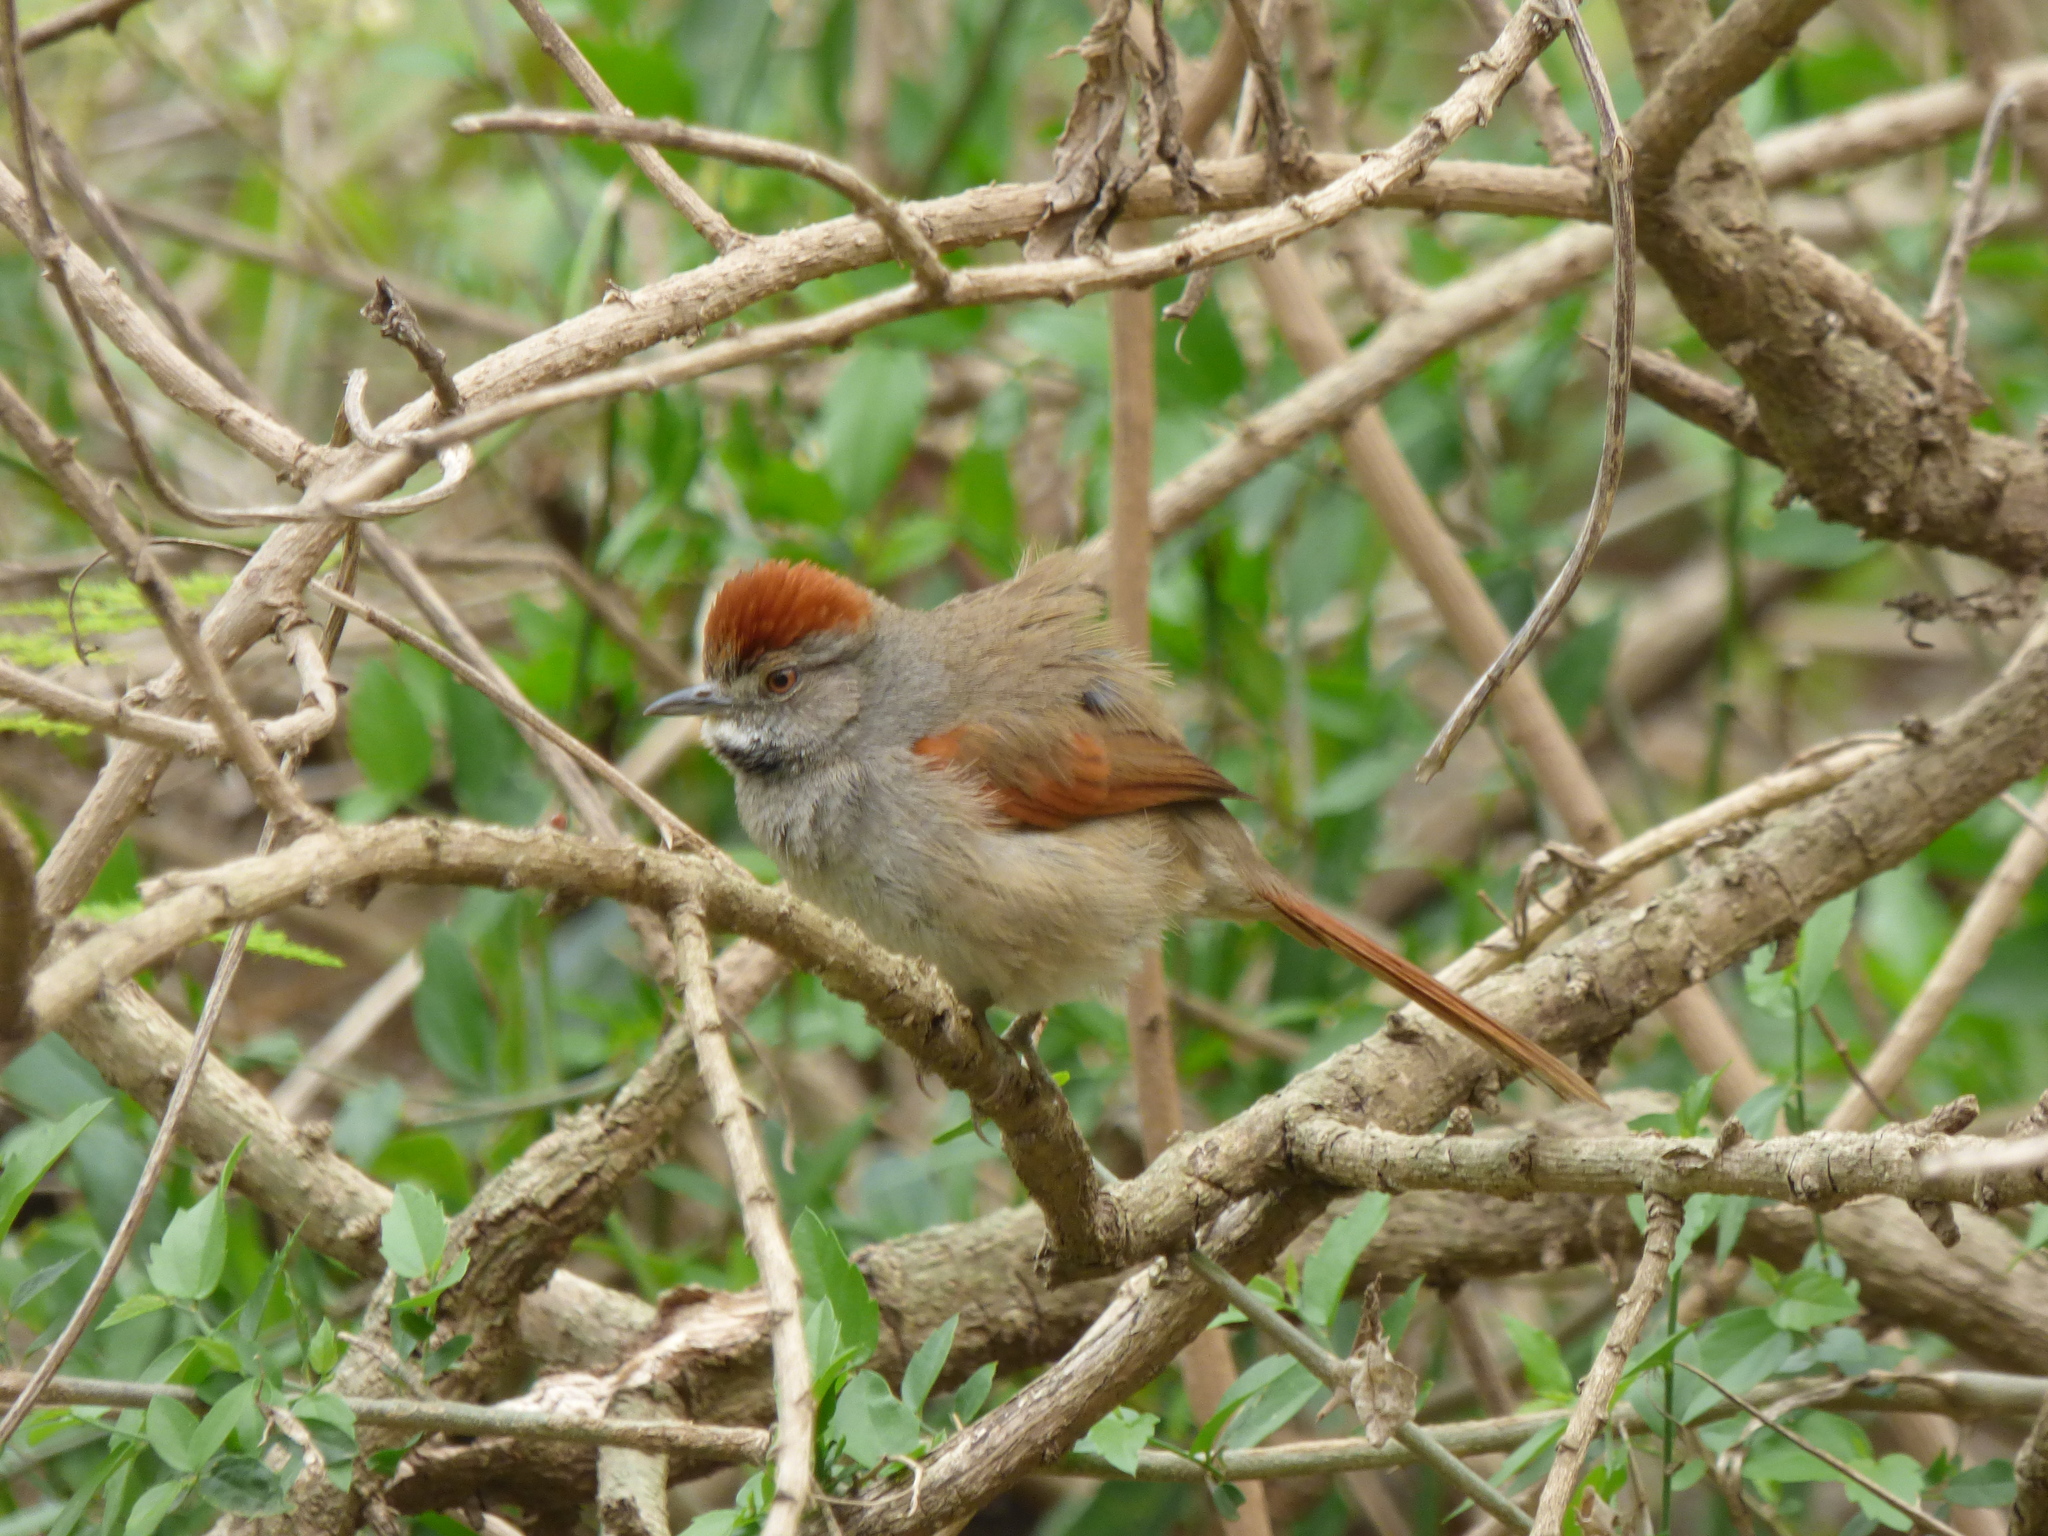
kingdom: Animalia
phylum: Chordata
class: Aves
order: Passeriformes
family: Furnariidae
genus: Synallaxis
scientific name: Synallaxis frontalis
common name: Sooty-fronted spinetail
